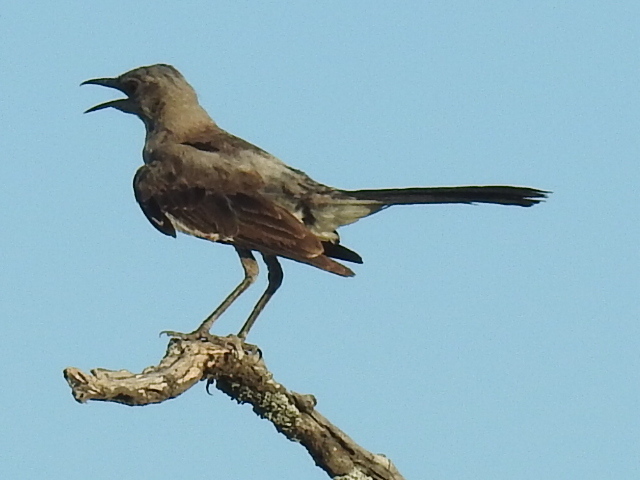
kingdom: Animalia
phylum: Chordata
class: Aves
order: Passeriformes
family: Mimidae
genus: Mimus
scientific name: Mimus polyglottos
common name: Northern mockingbird
